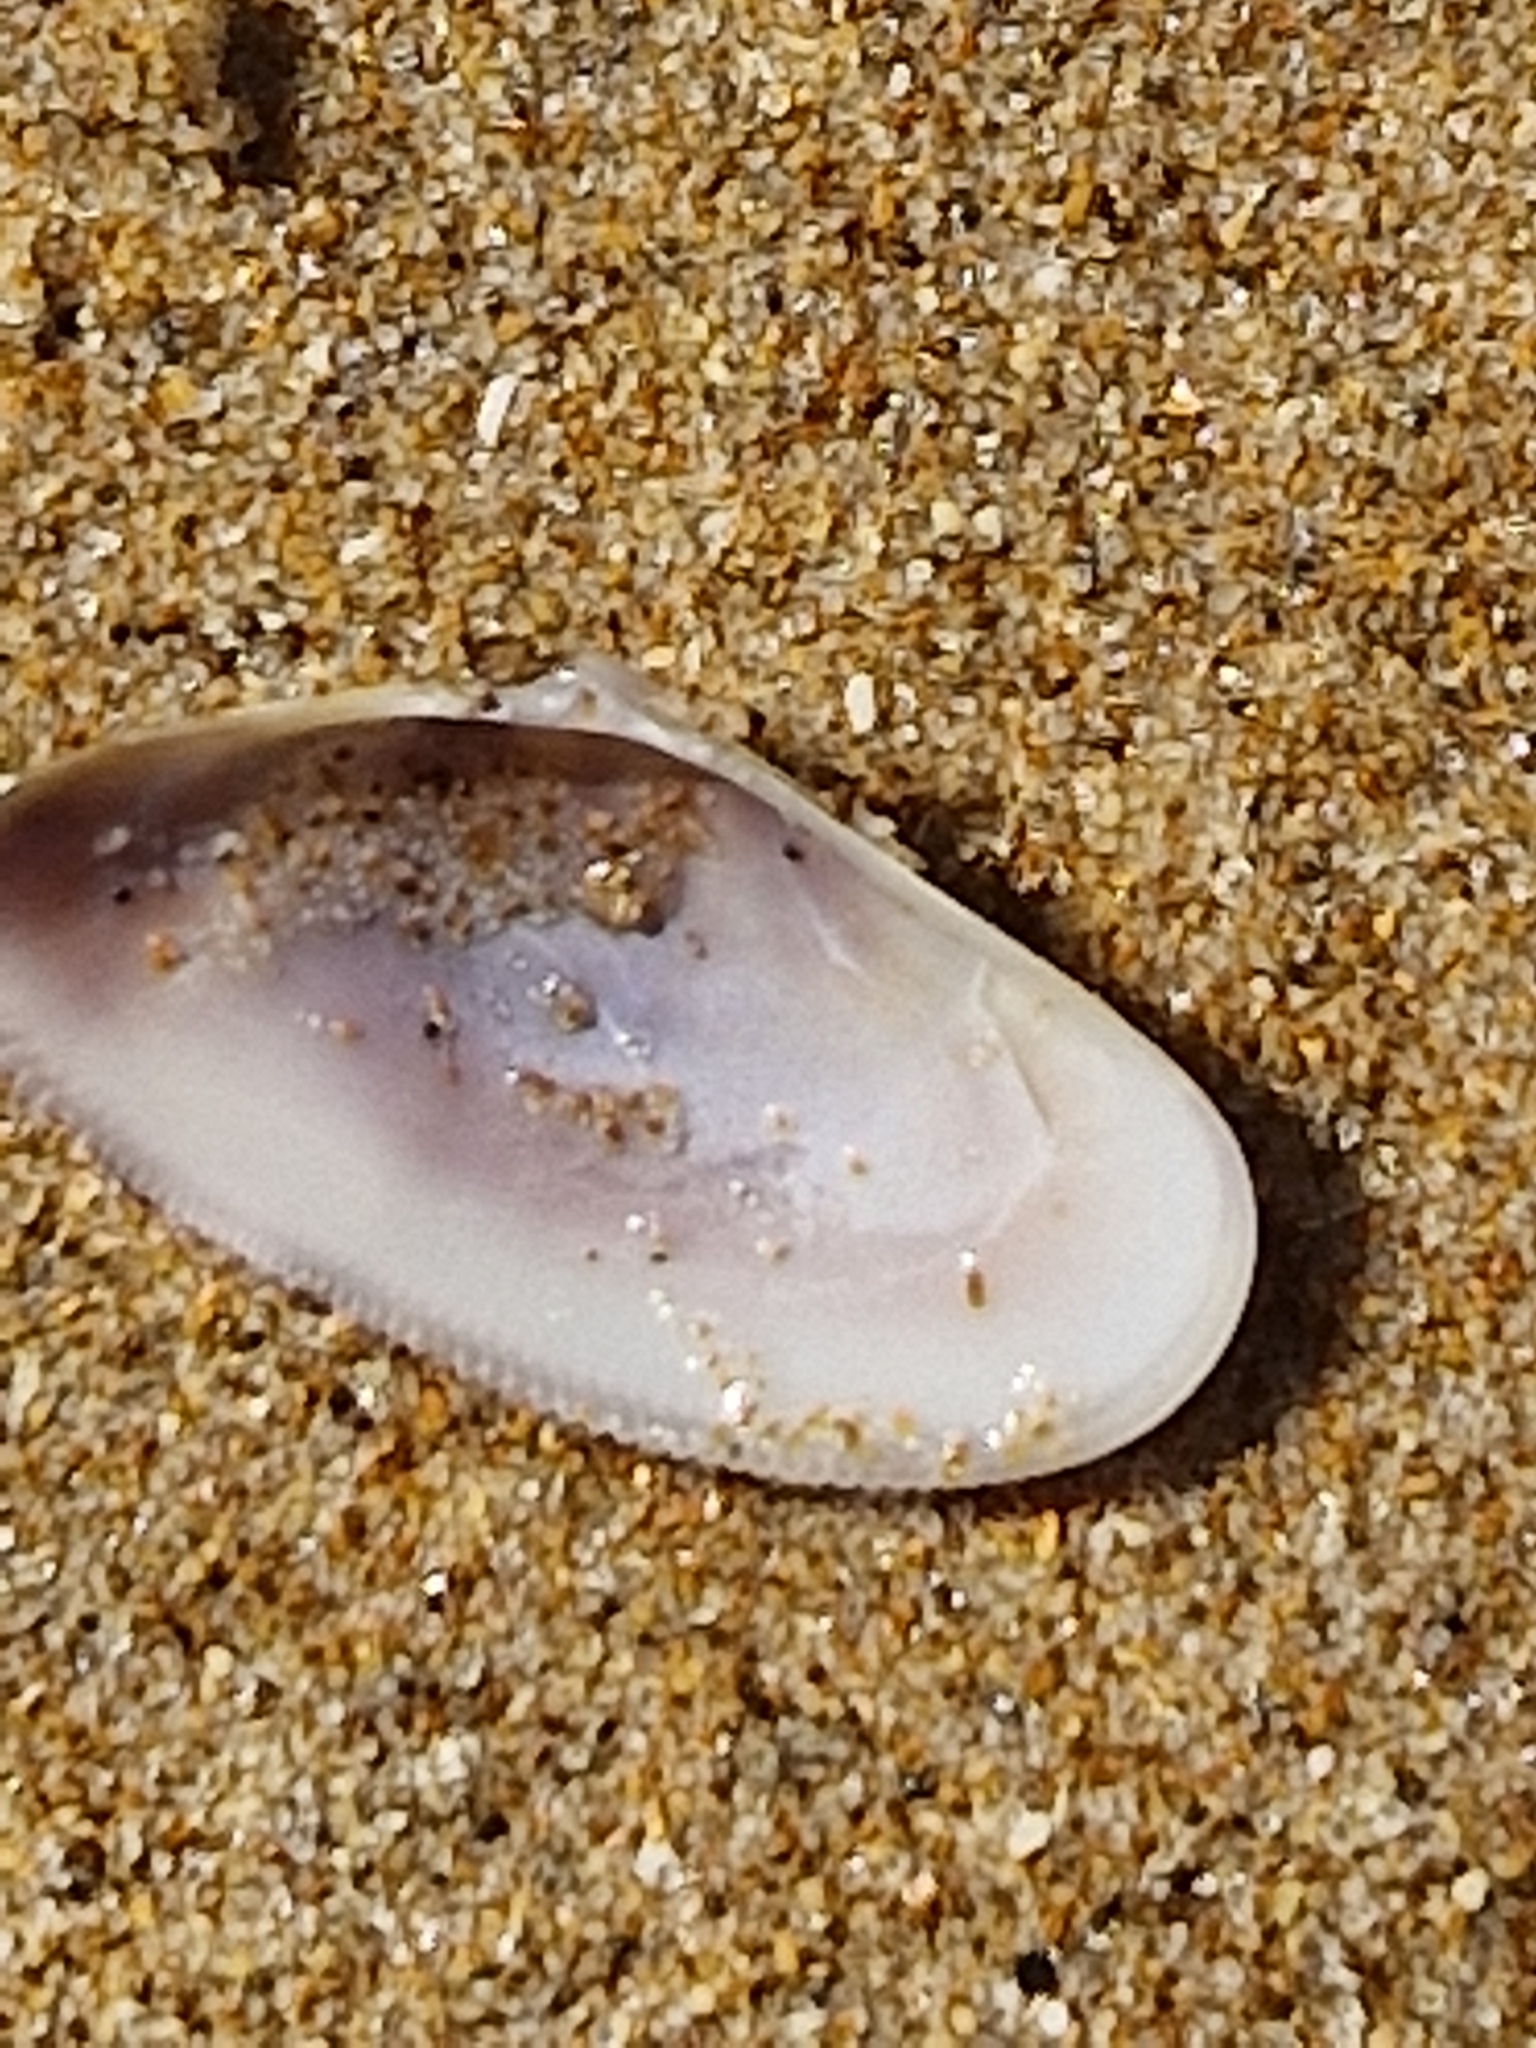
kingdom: Animalia
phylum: Mollusca
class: Bivalvia
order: Cardiida
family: Donacidae
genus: Donax
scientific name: Donax vittatus
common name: Banded wedge-shell
